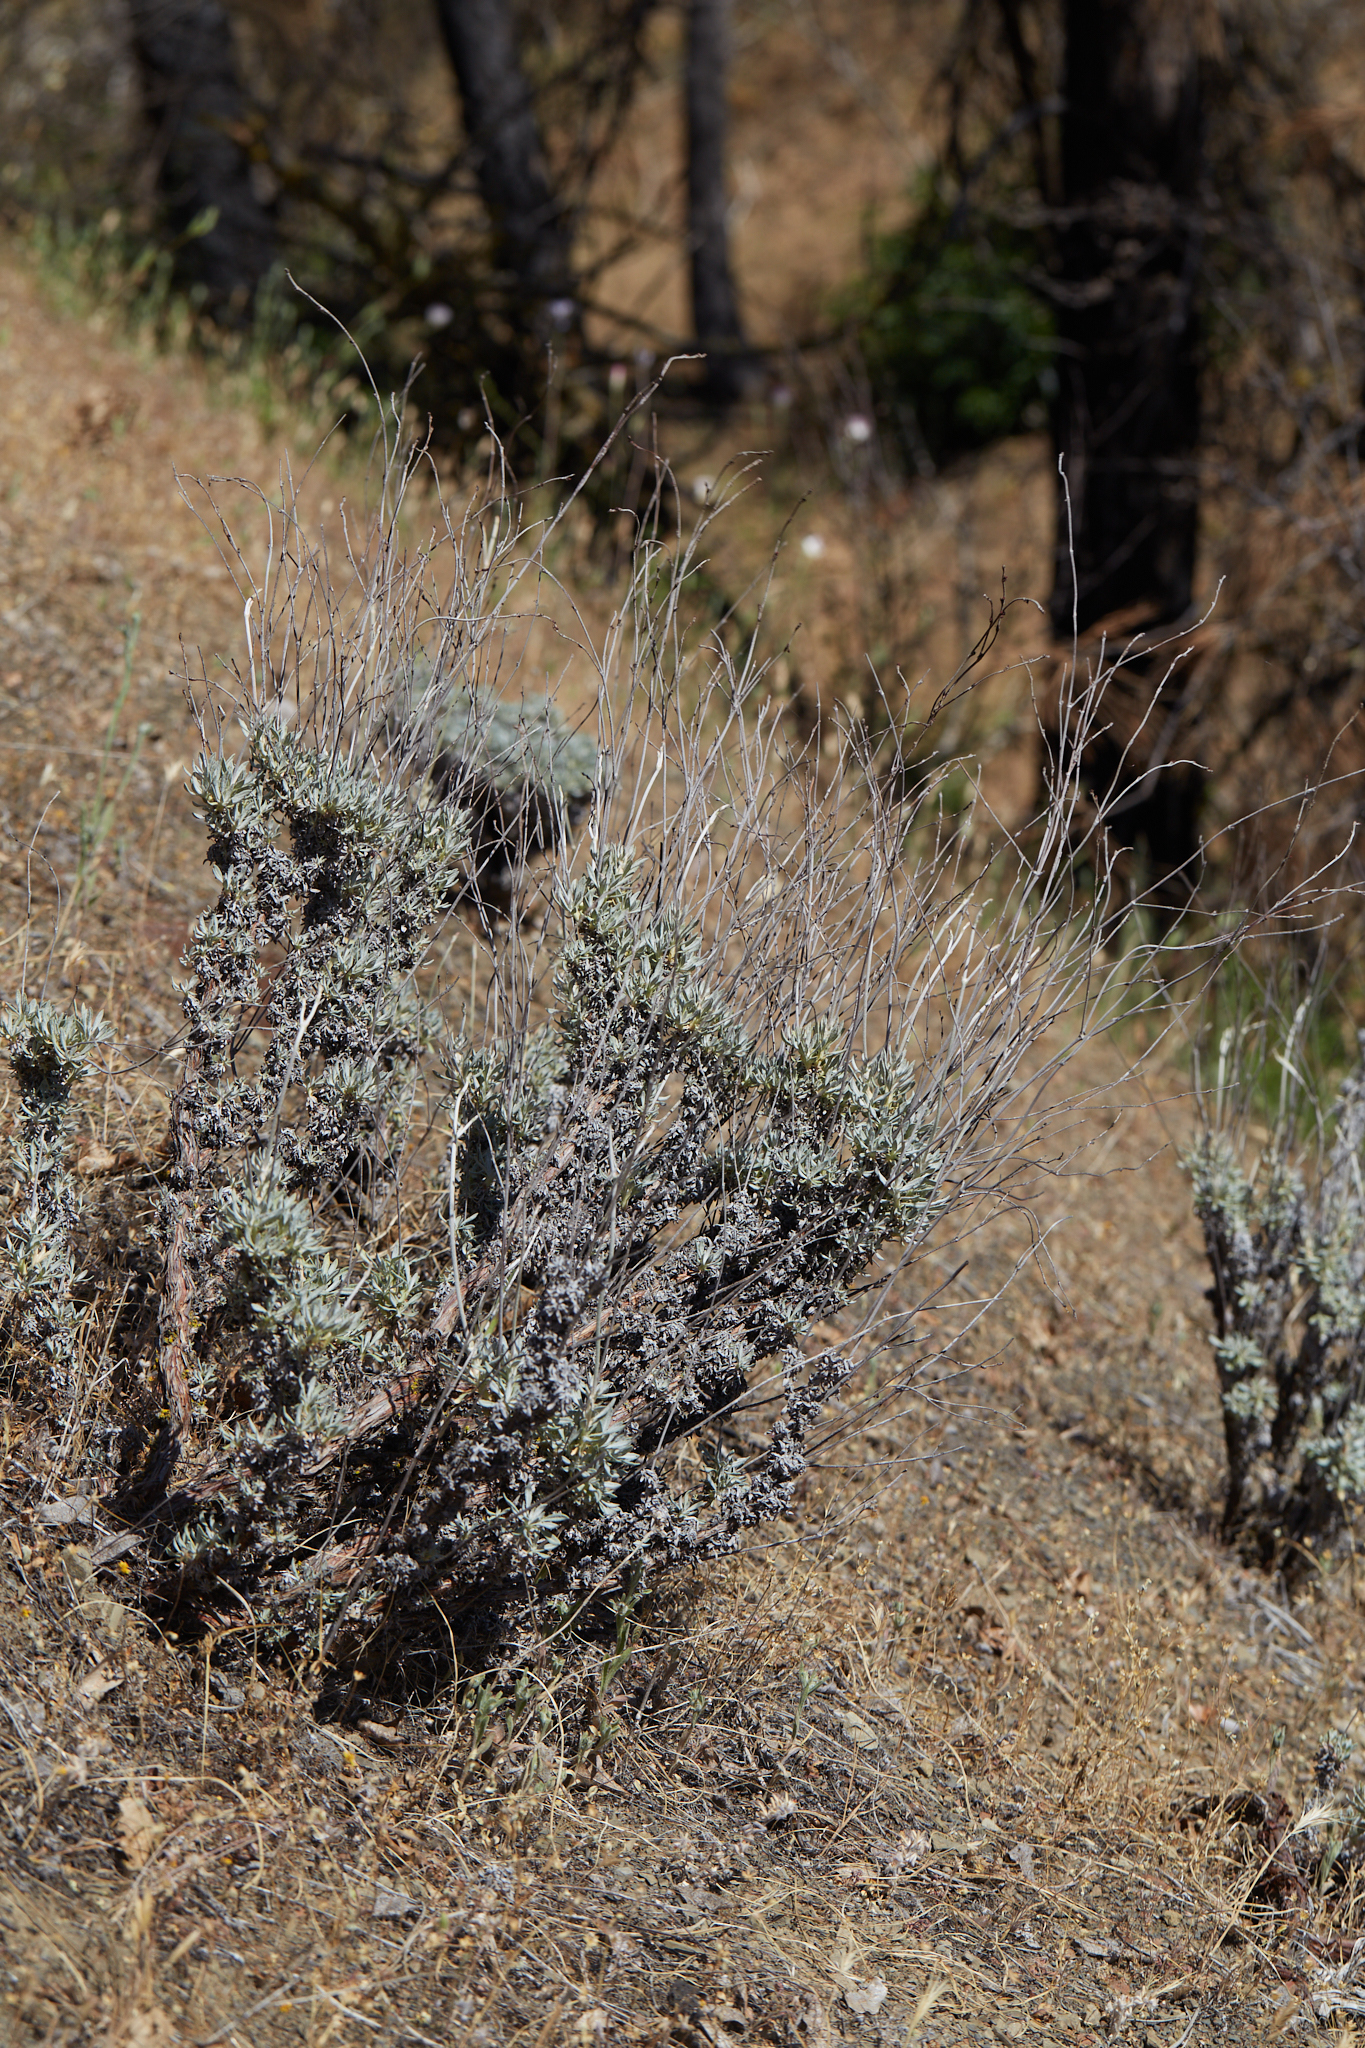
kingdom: Plantae
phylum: Tracheophyta
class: Magnoliopsida
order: Caryophyllales
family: Polygonaceae
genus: Eriogonum
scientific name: Eriogonum wrightii
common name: Bastard-sage
